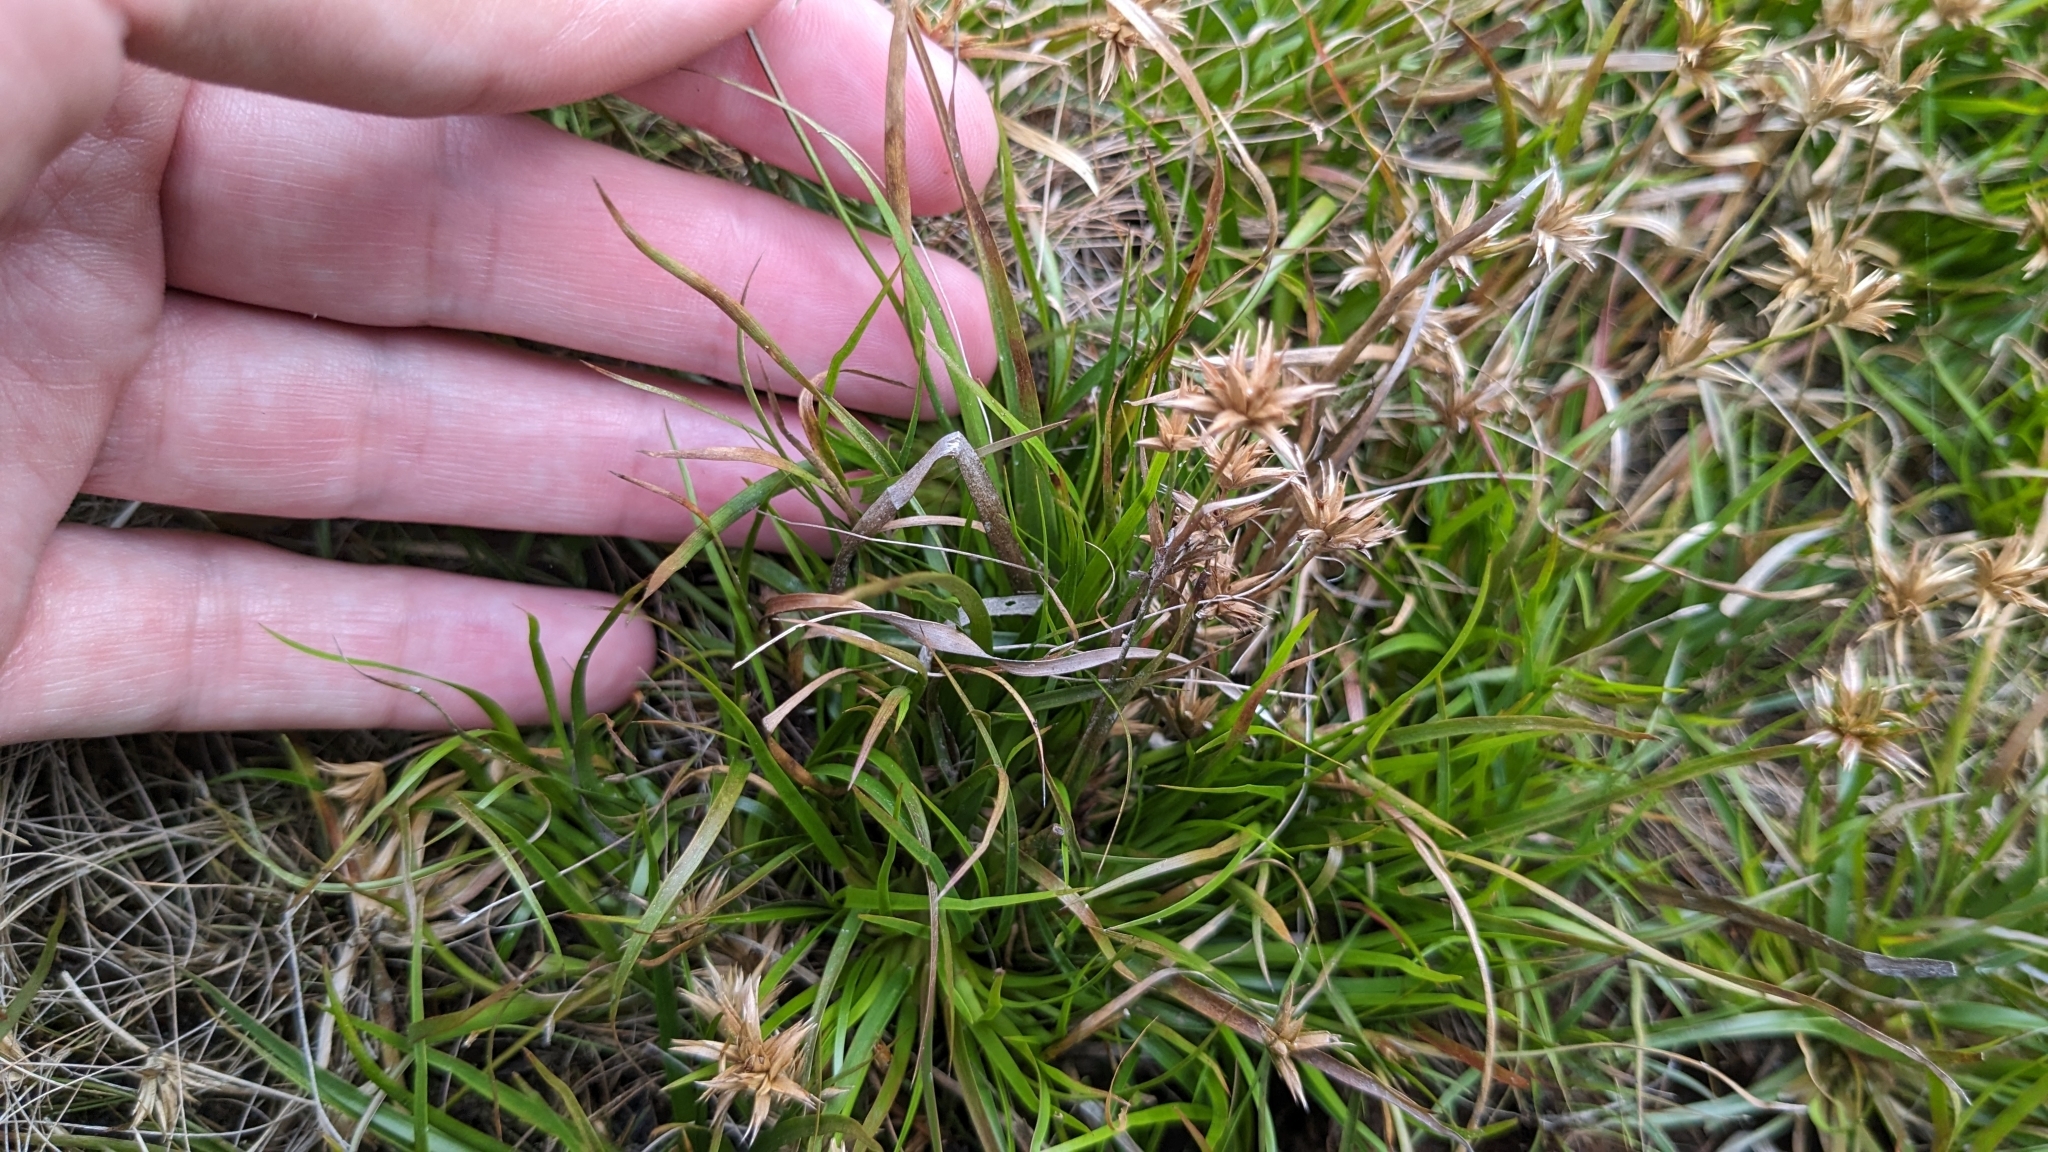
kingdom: Plantae
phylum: Tracheophyta
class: Liliopsida
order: Poales
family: Juncaceae
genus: Juncus
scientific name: Juncus repens
